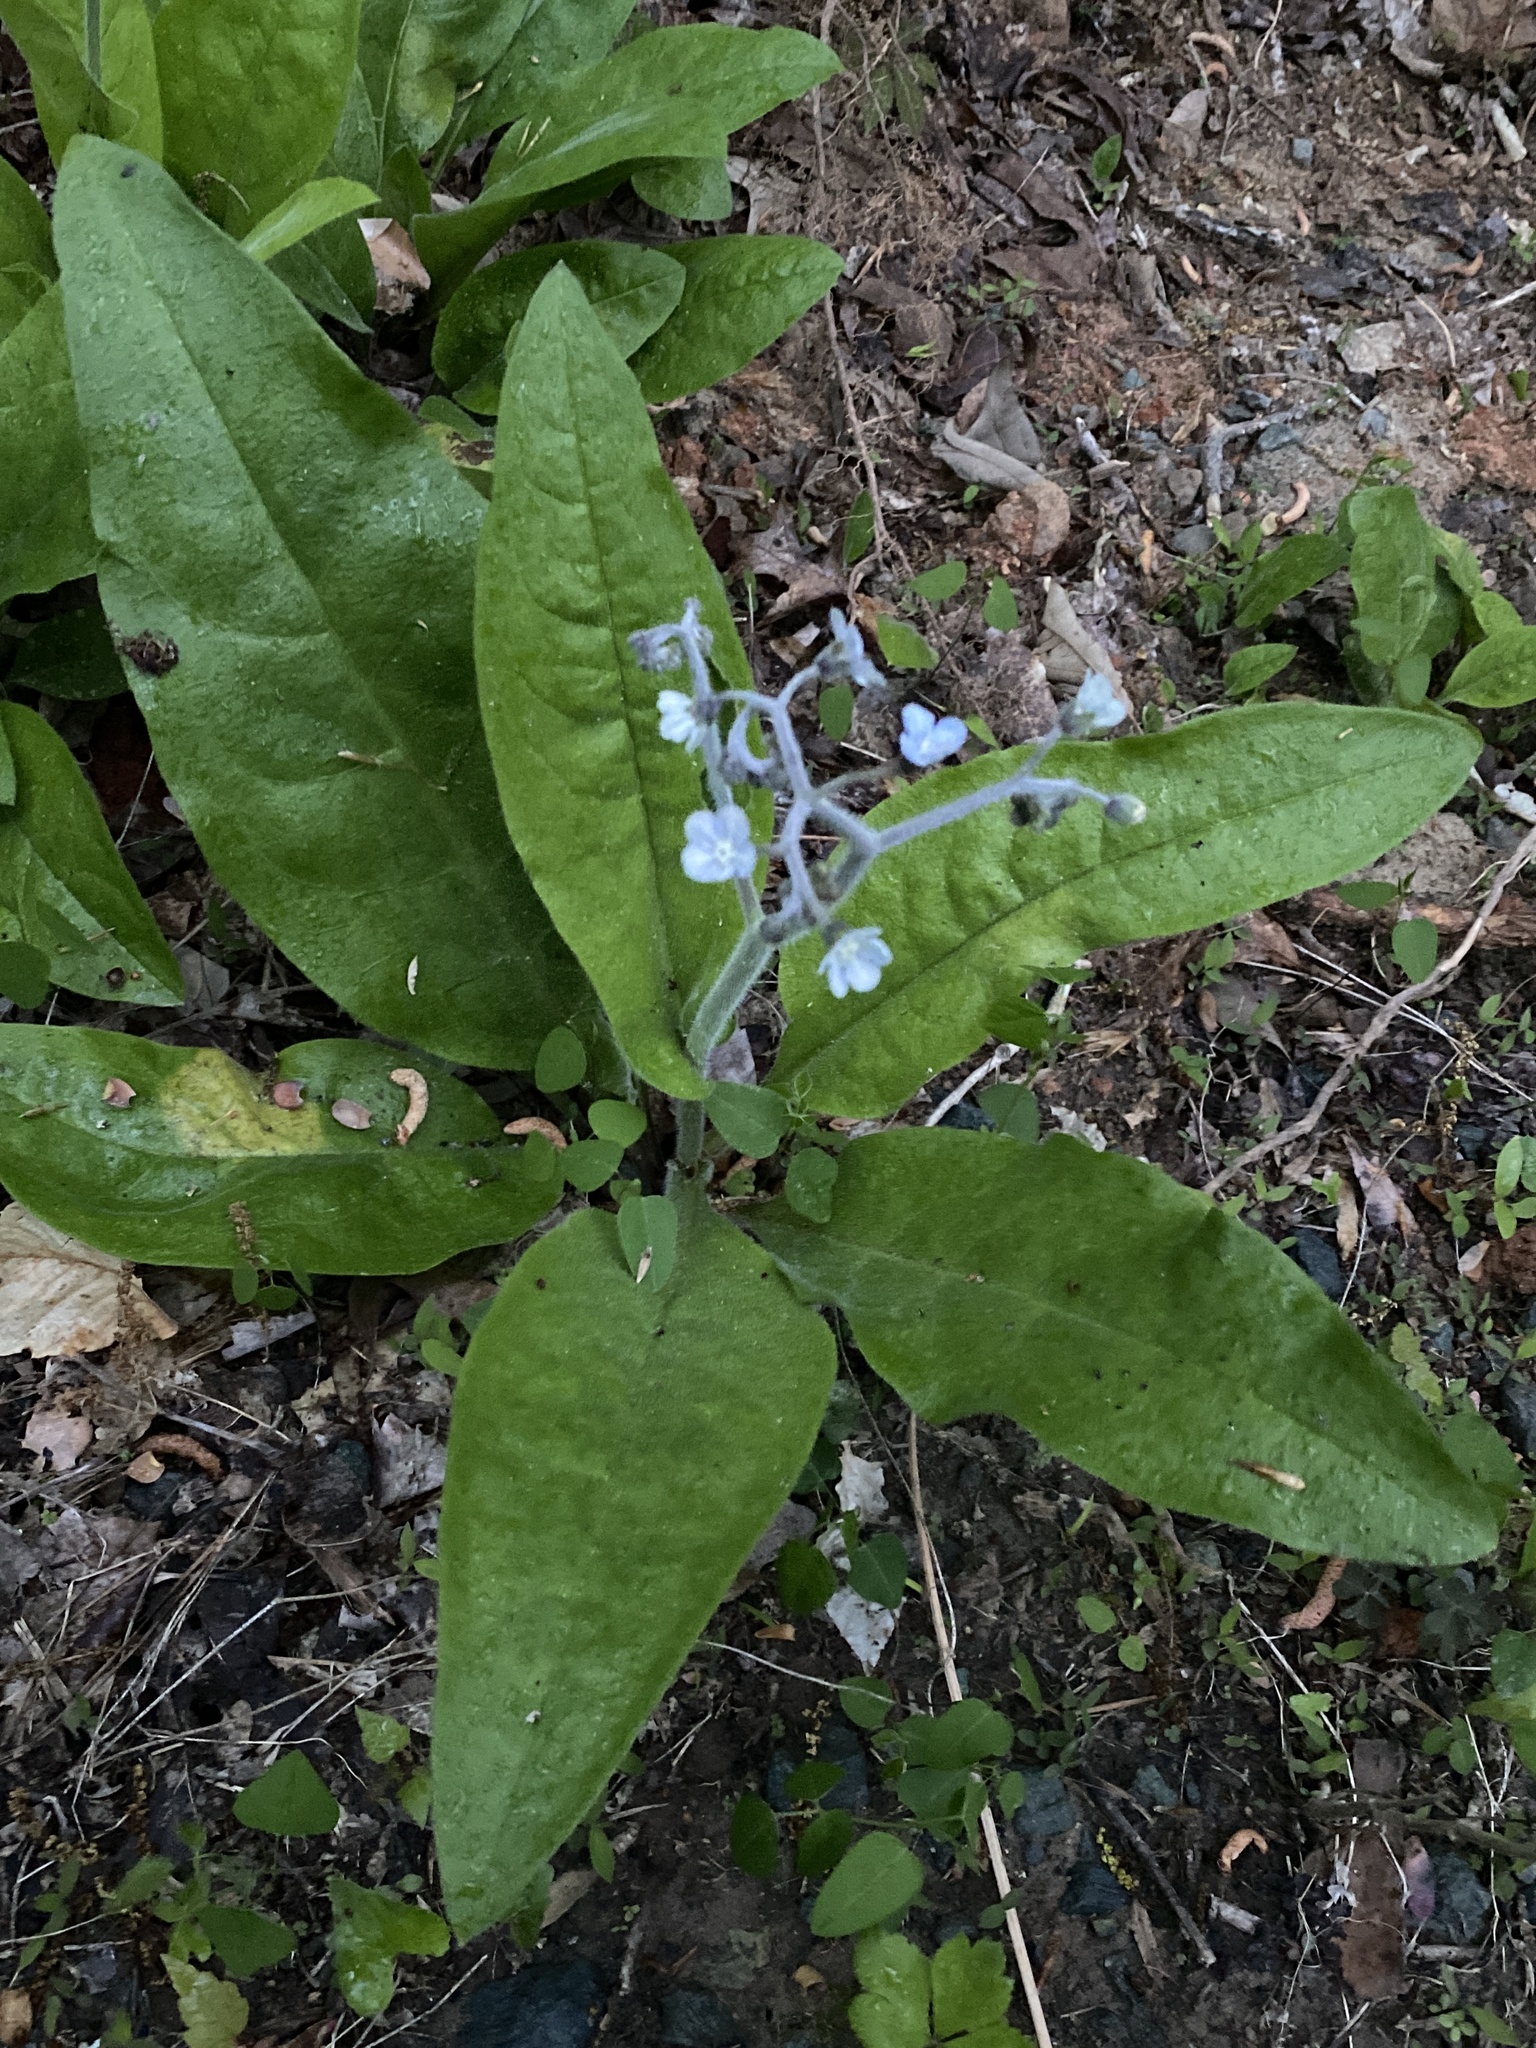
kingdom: Plantae
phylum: Tracheophyta
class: Magnoliopsida
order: Boraginales
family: Boraginaceae
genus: Andersonglossum
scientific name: Andersonglossum virginianum
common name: Wild comfrey
